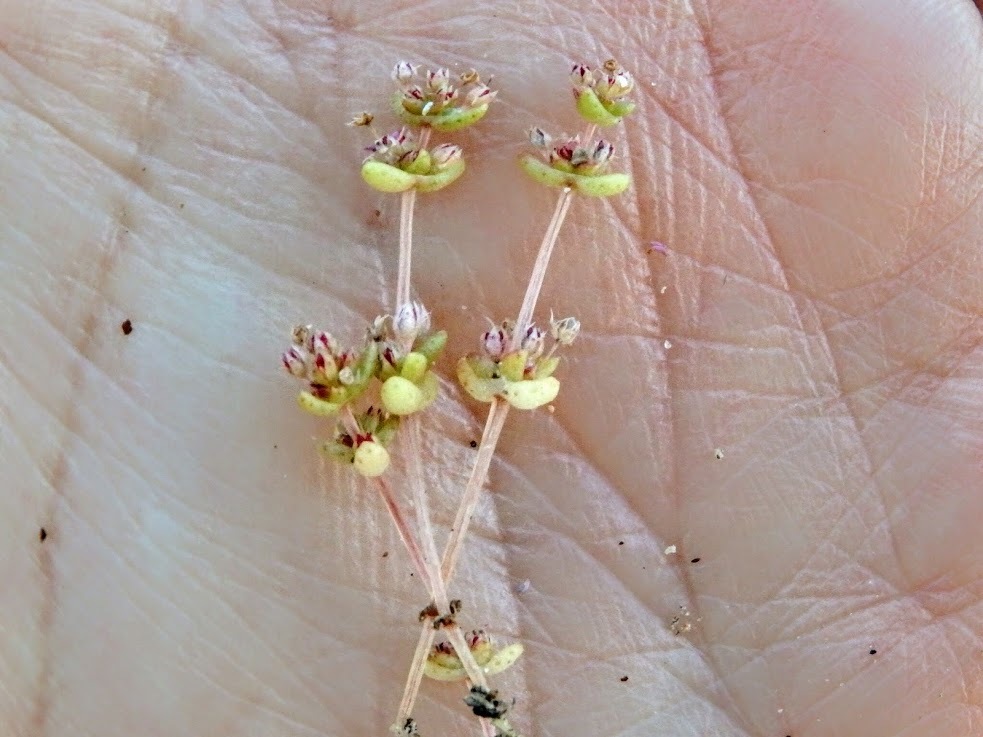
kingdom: Plantae
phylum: Tracheophyta
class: Magnoliopsida
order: Saxifragales
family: Crassulaceae
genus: Crassula
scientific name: Crassula connata
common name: Erect pygmyweed
